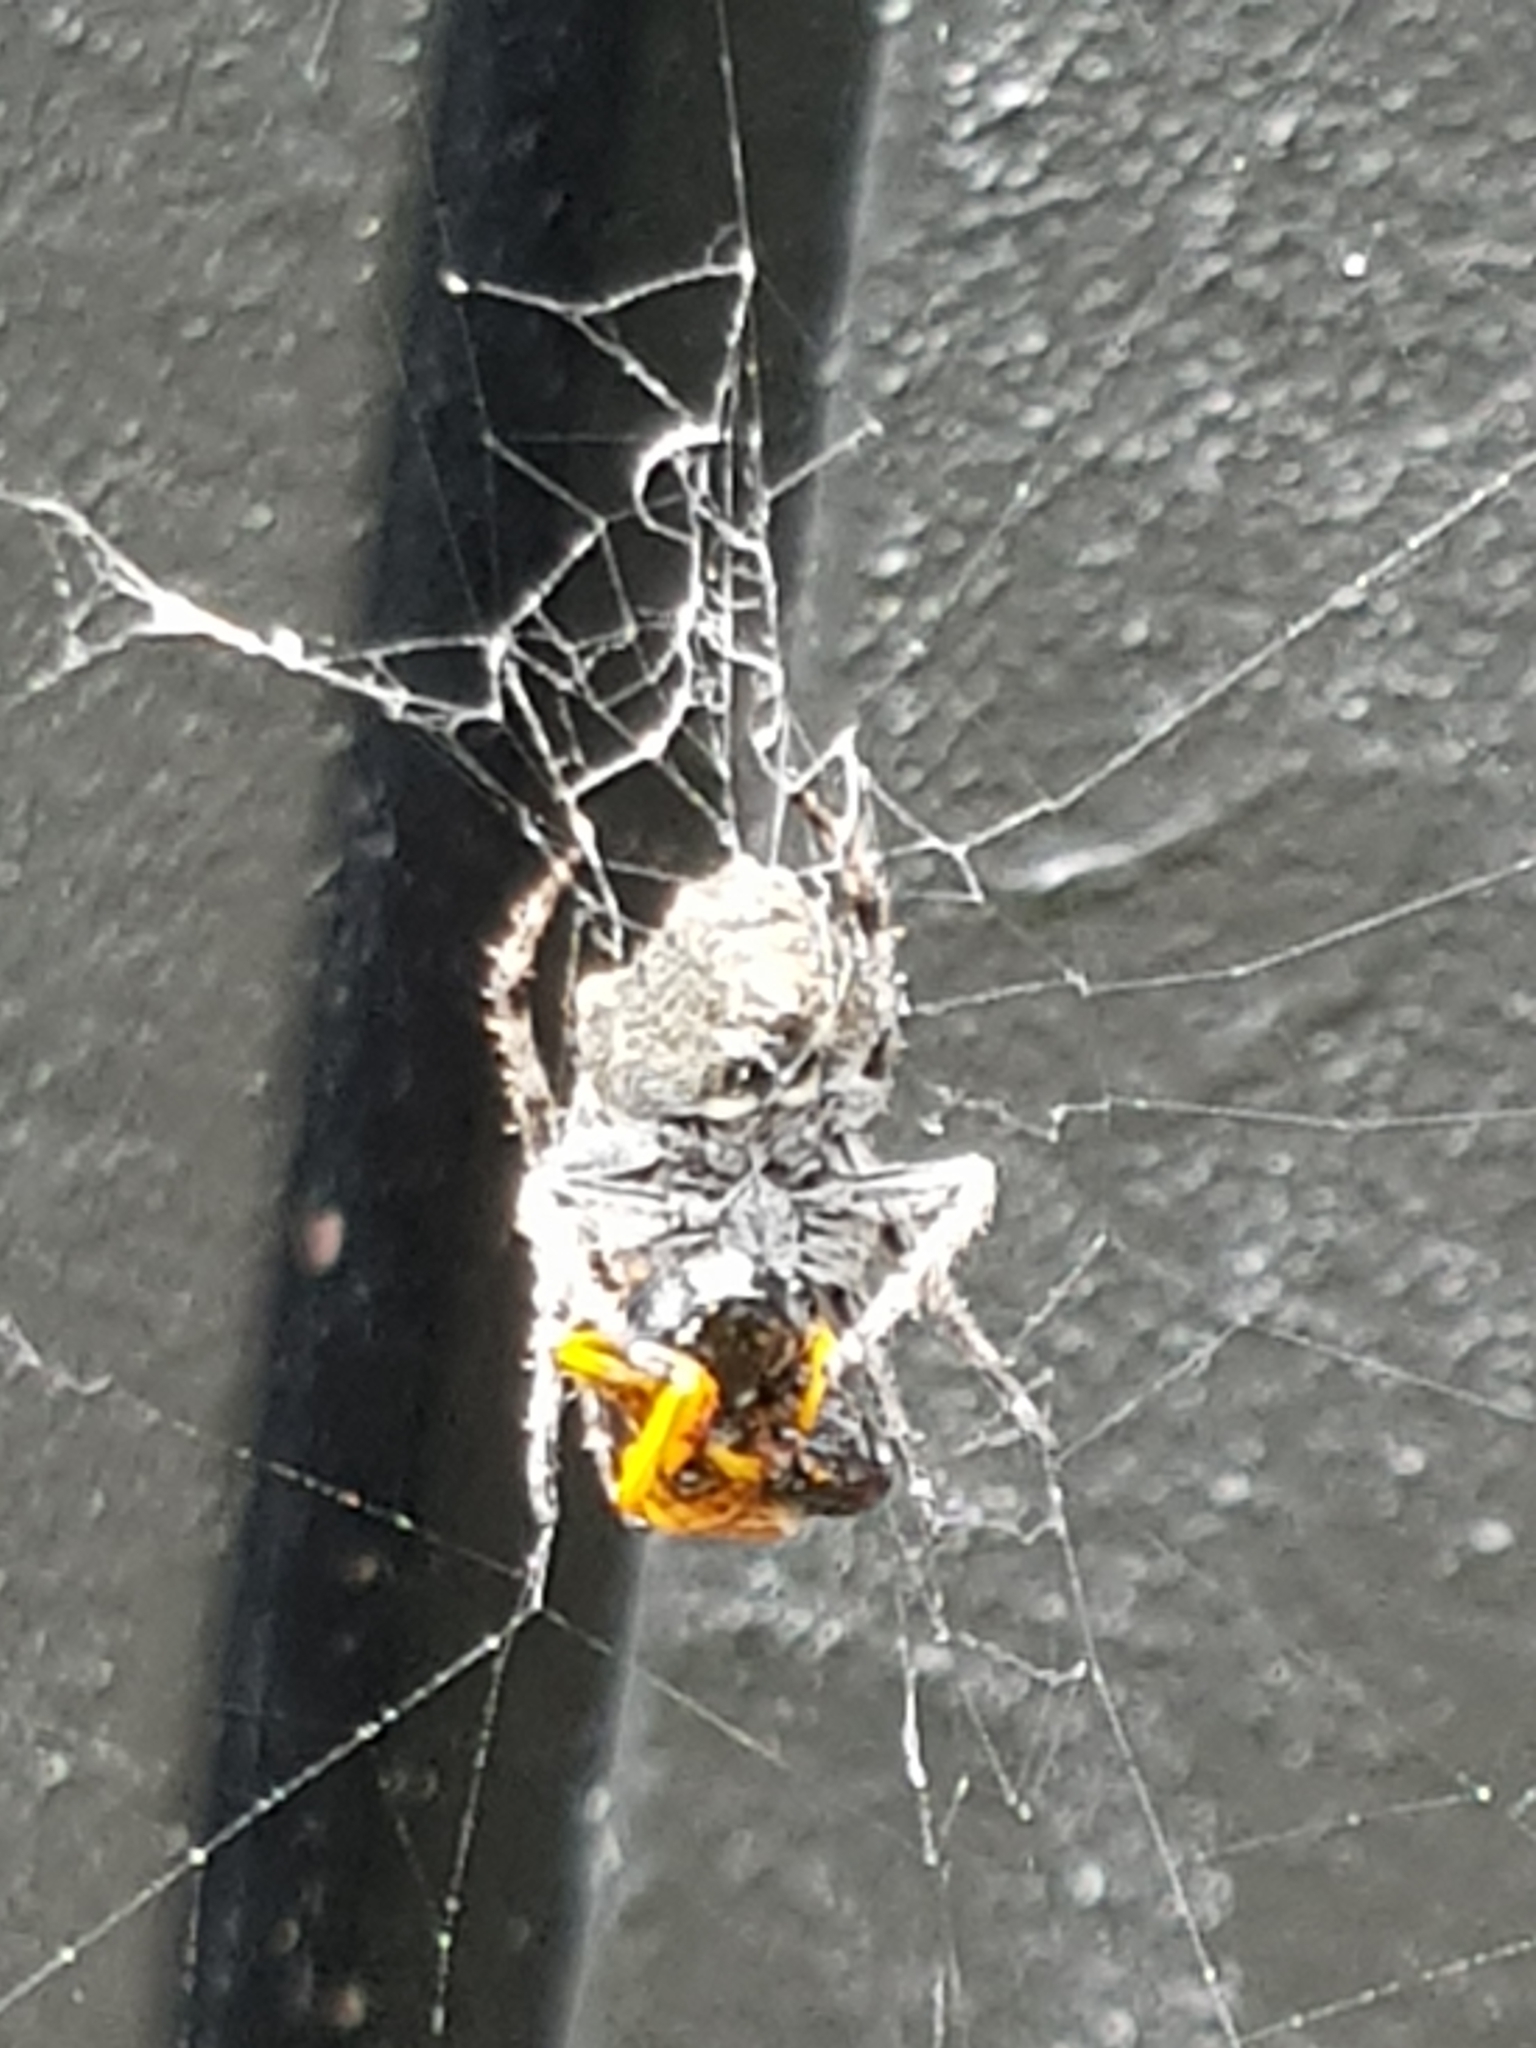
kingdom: Animalia
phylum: Arthropoda
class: Arachnida
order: Araneae
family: Araneidae
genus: Eriophora
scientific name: Eriophora pustulosa
